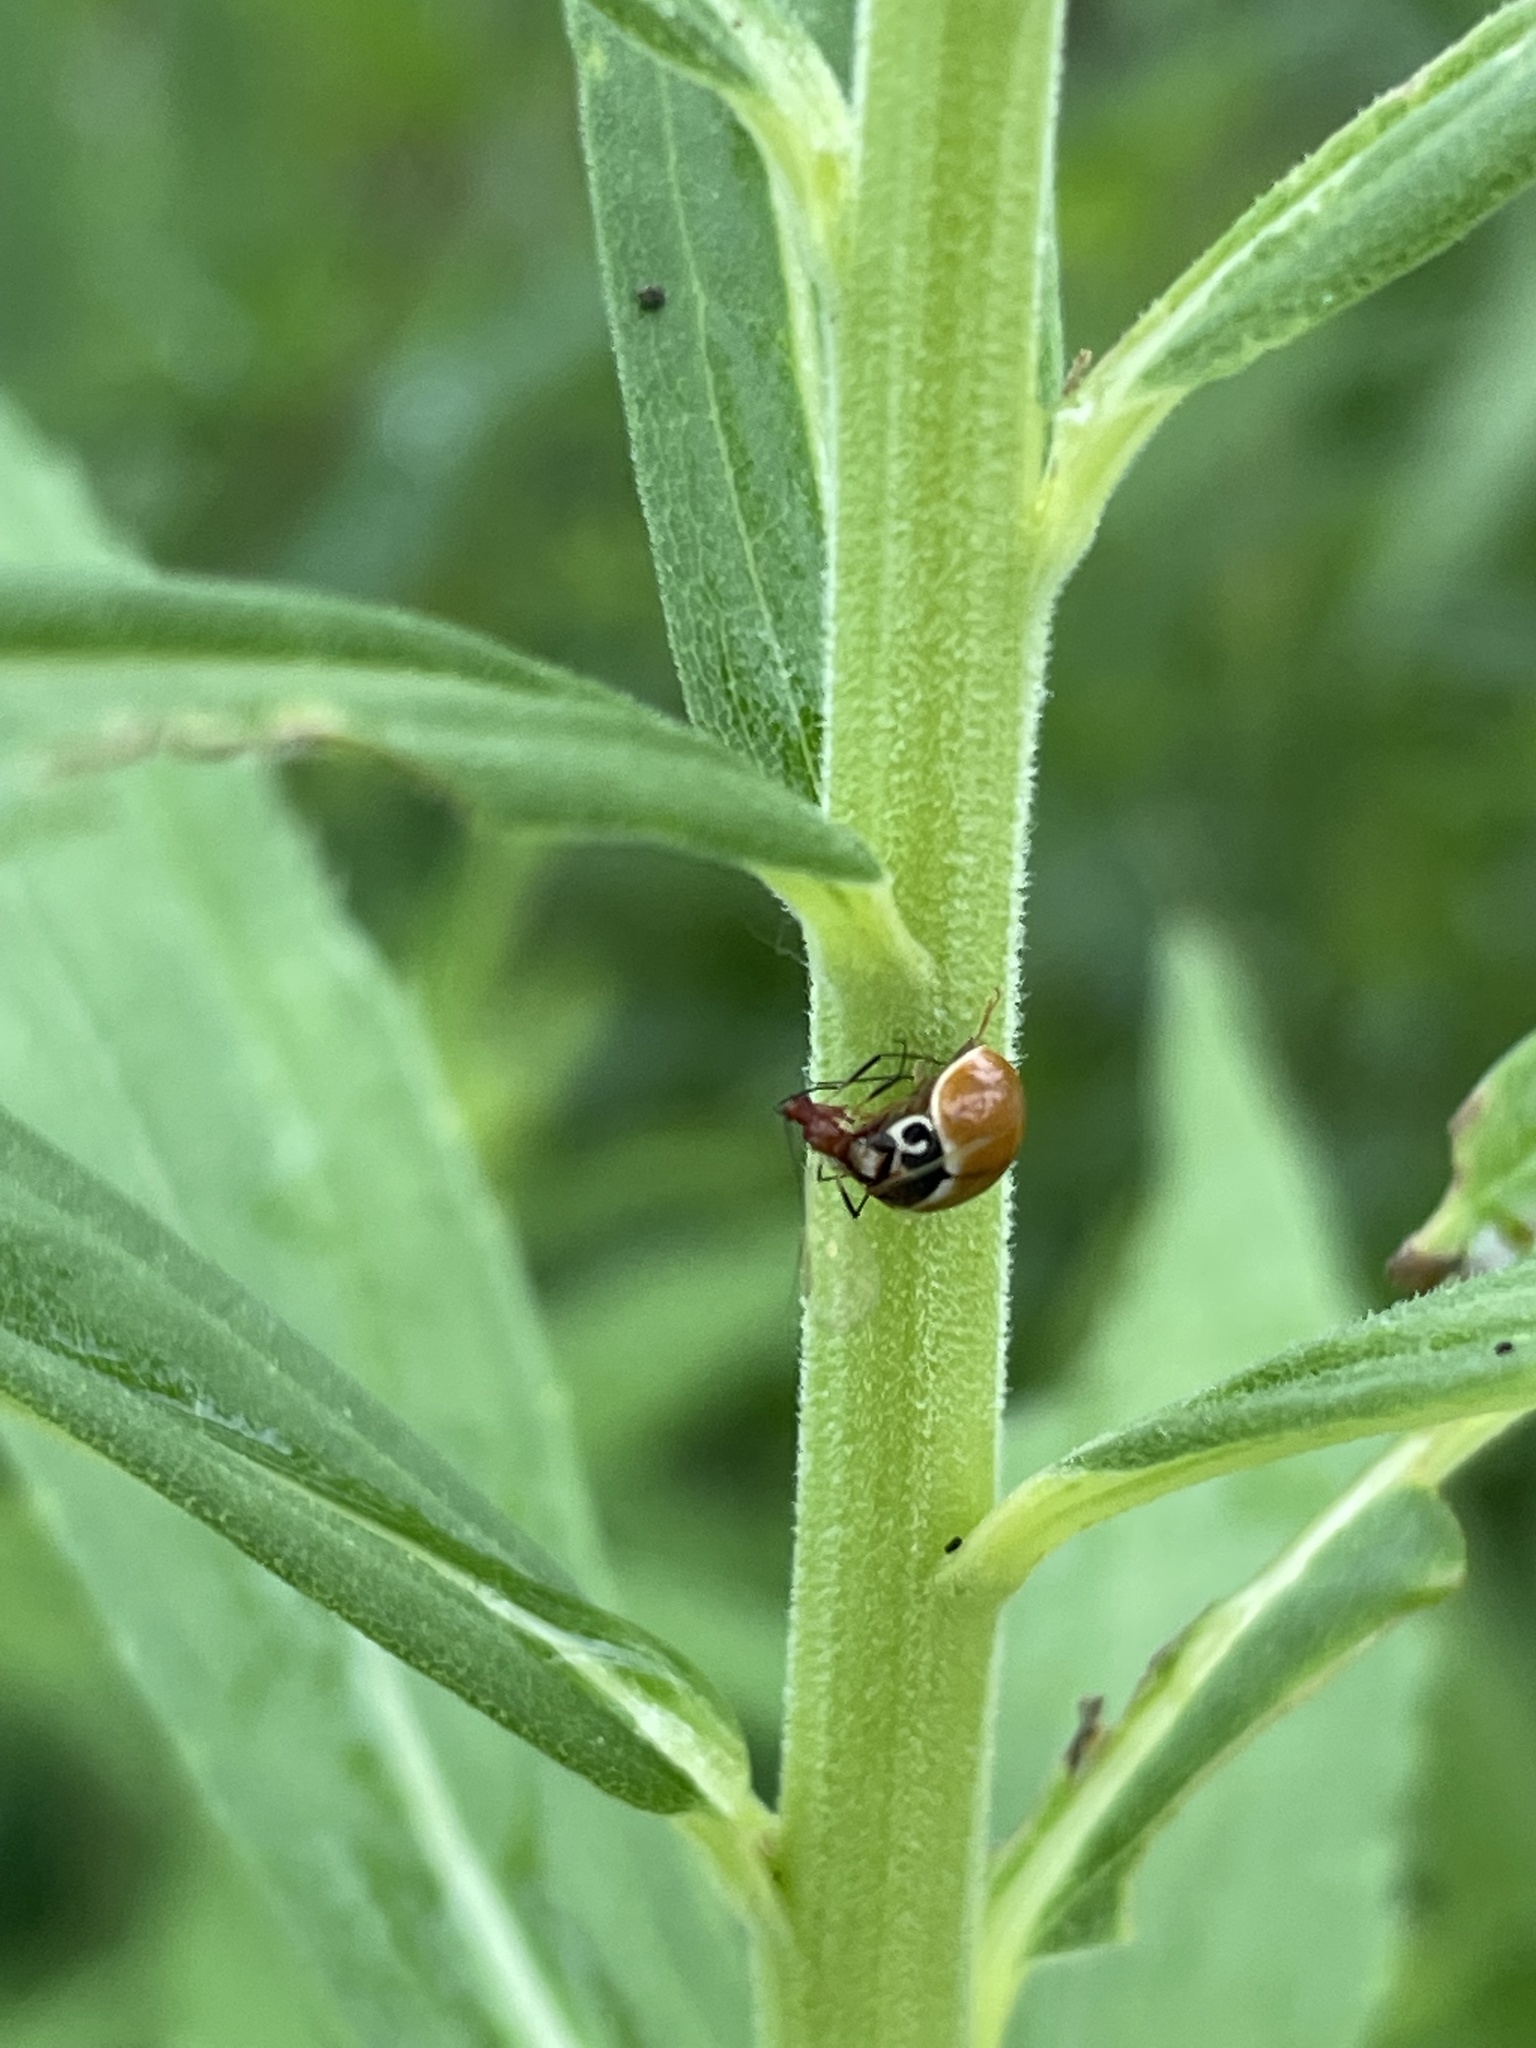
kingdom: Animalia
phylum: Arthropoda
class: Insecta
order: Coleoptera
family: Coccinellidae
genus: Cycloneda
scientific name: Cycloneda munda
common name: Polished lady beetle
